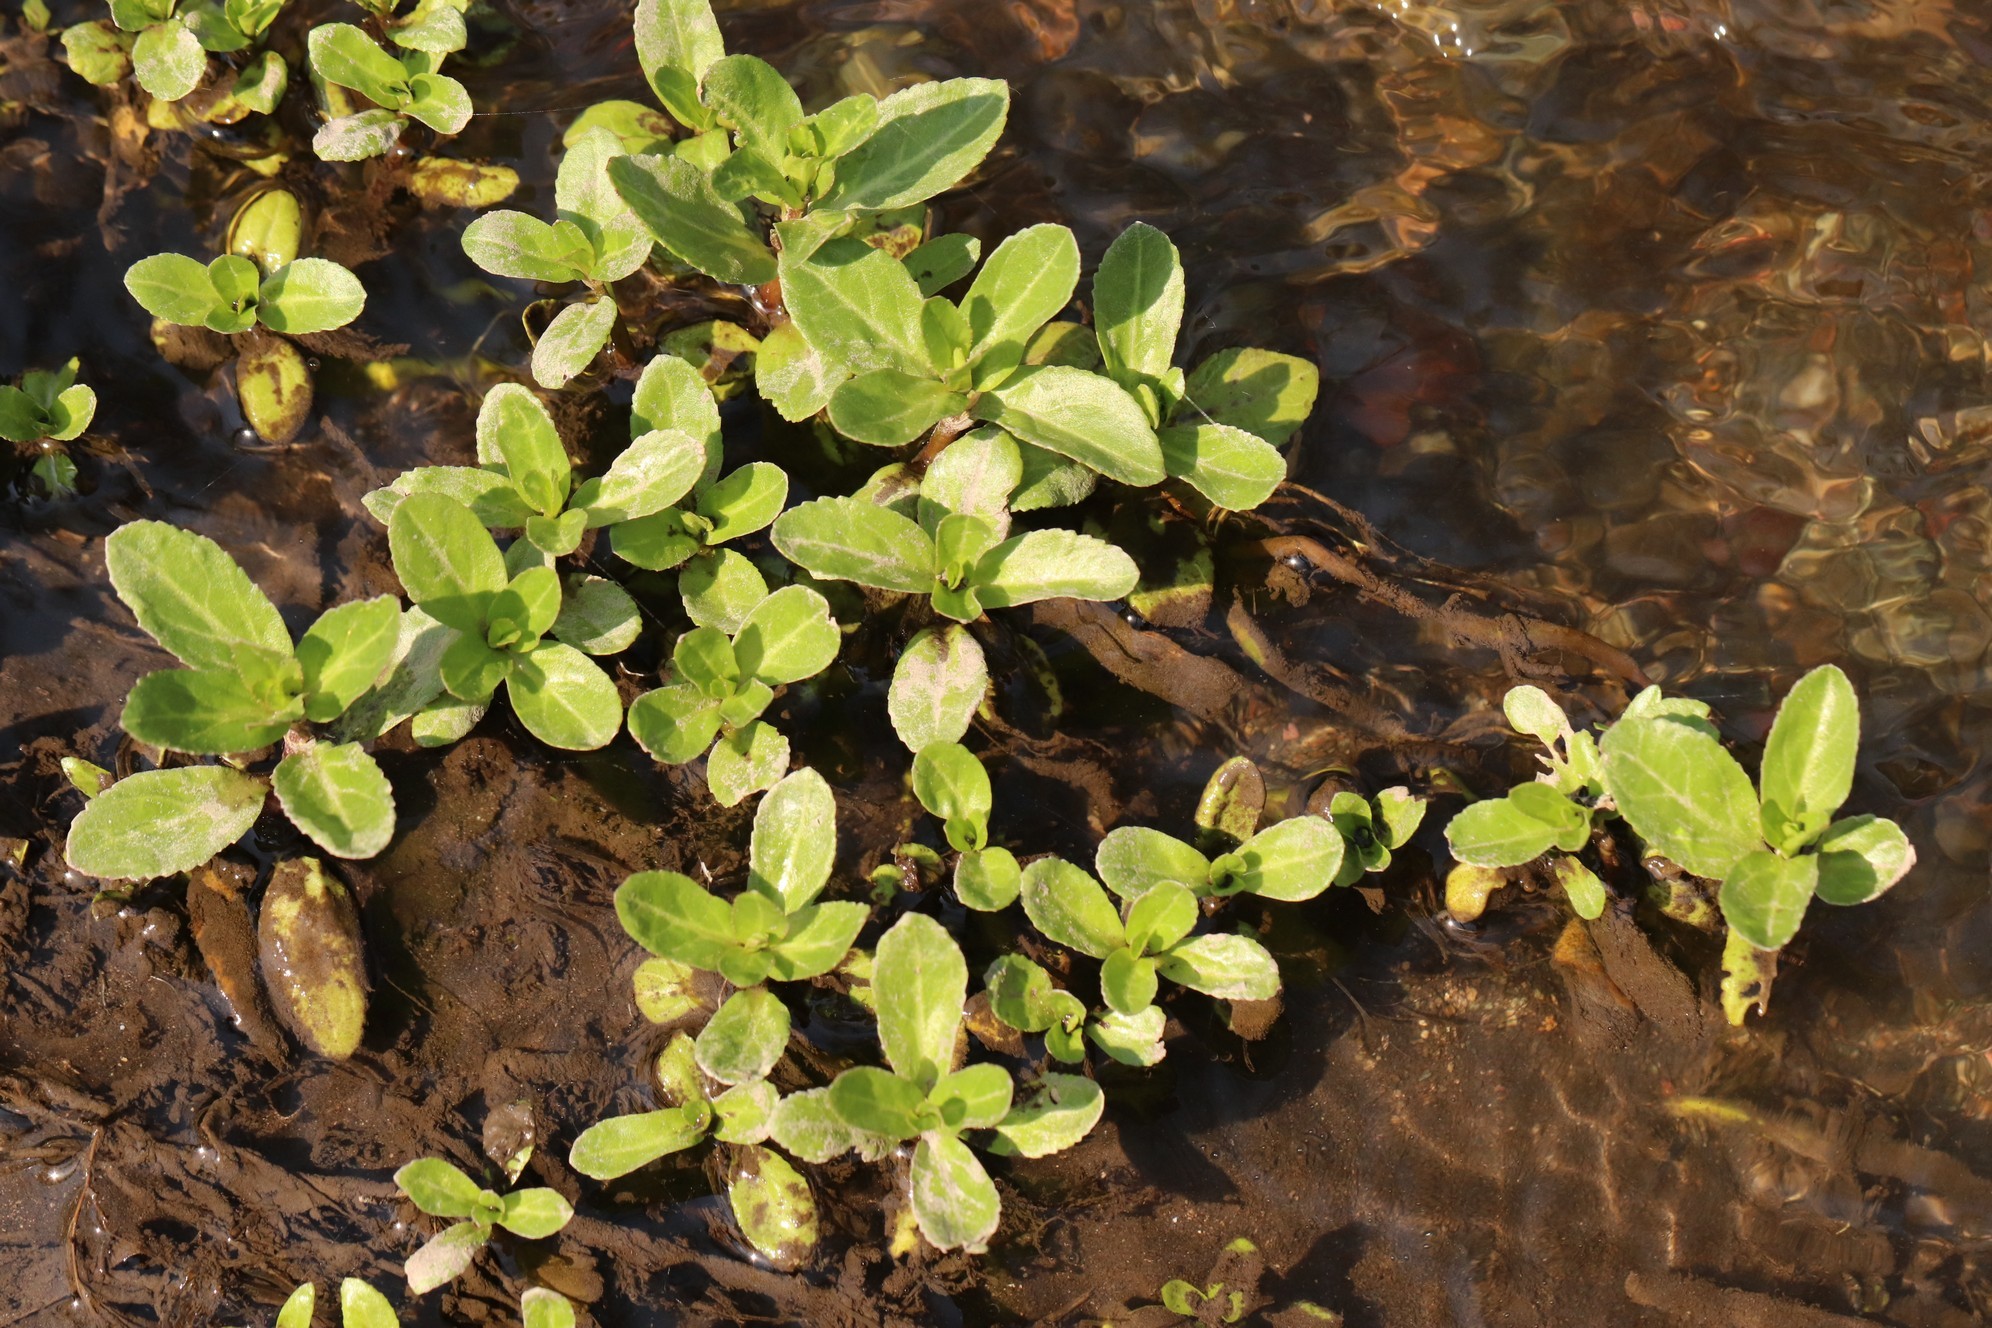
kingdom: Plantae
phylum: Tracheophyta
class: Magnoliopsida
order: Lamiales
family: Plantaginaceae
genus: Veronica
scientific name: Veronica beccabunga
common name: Brooklime
